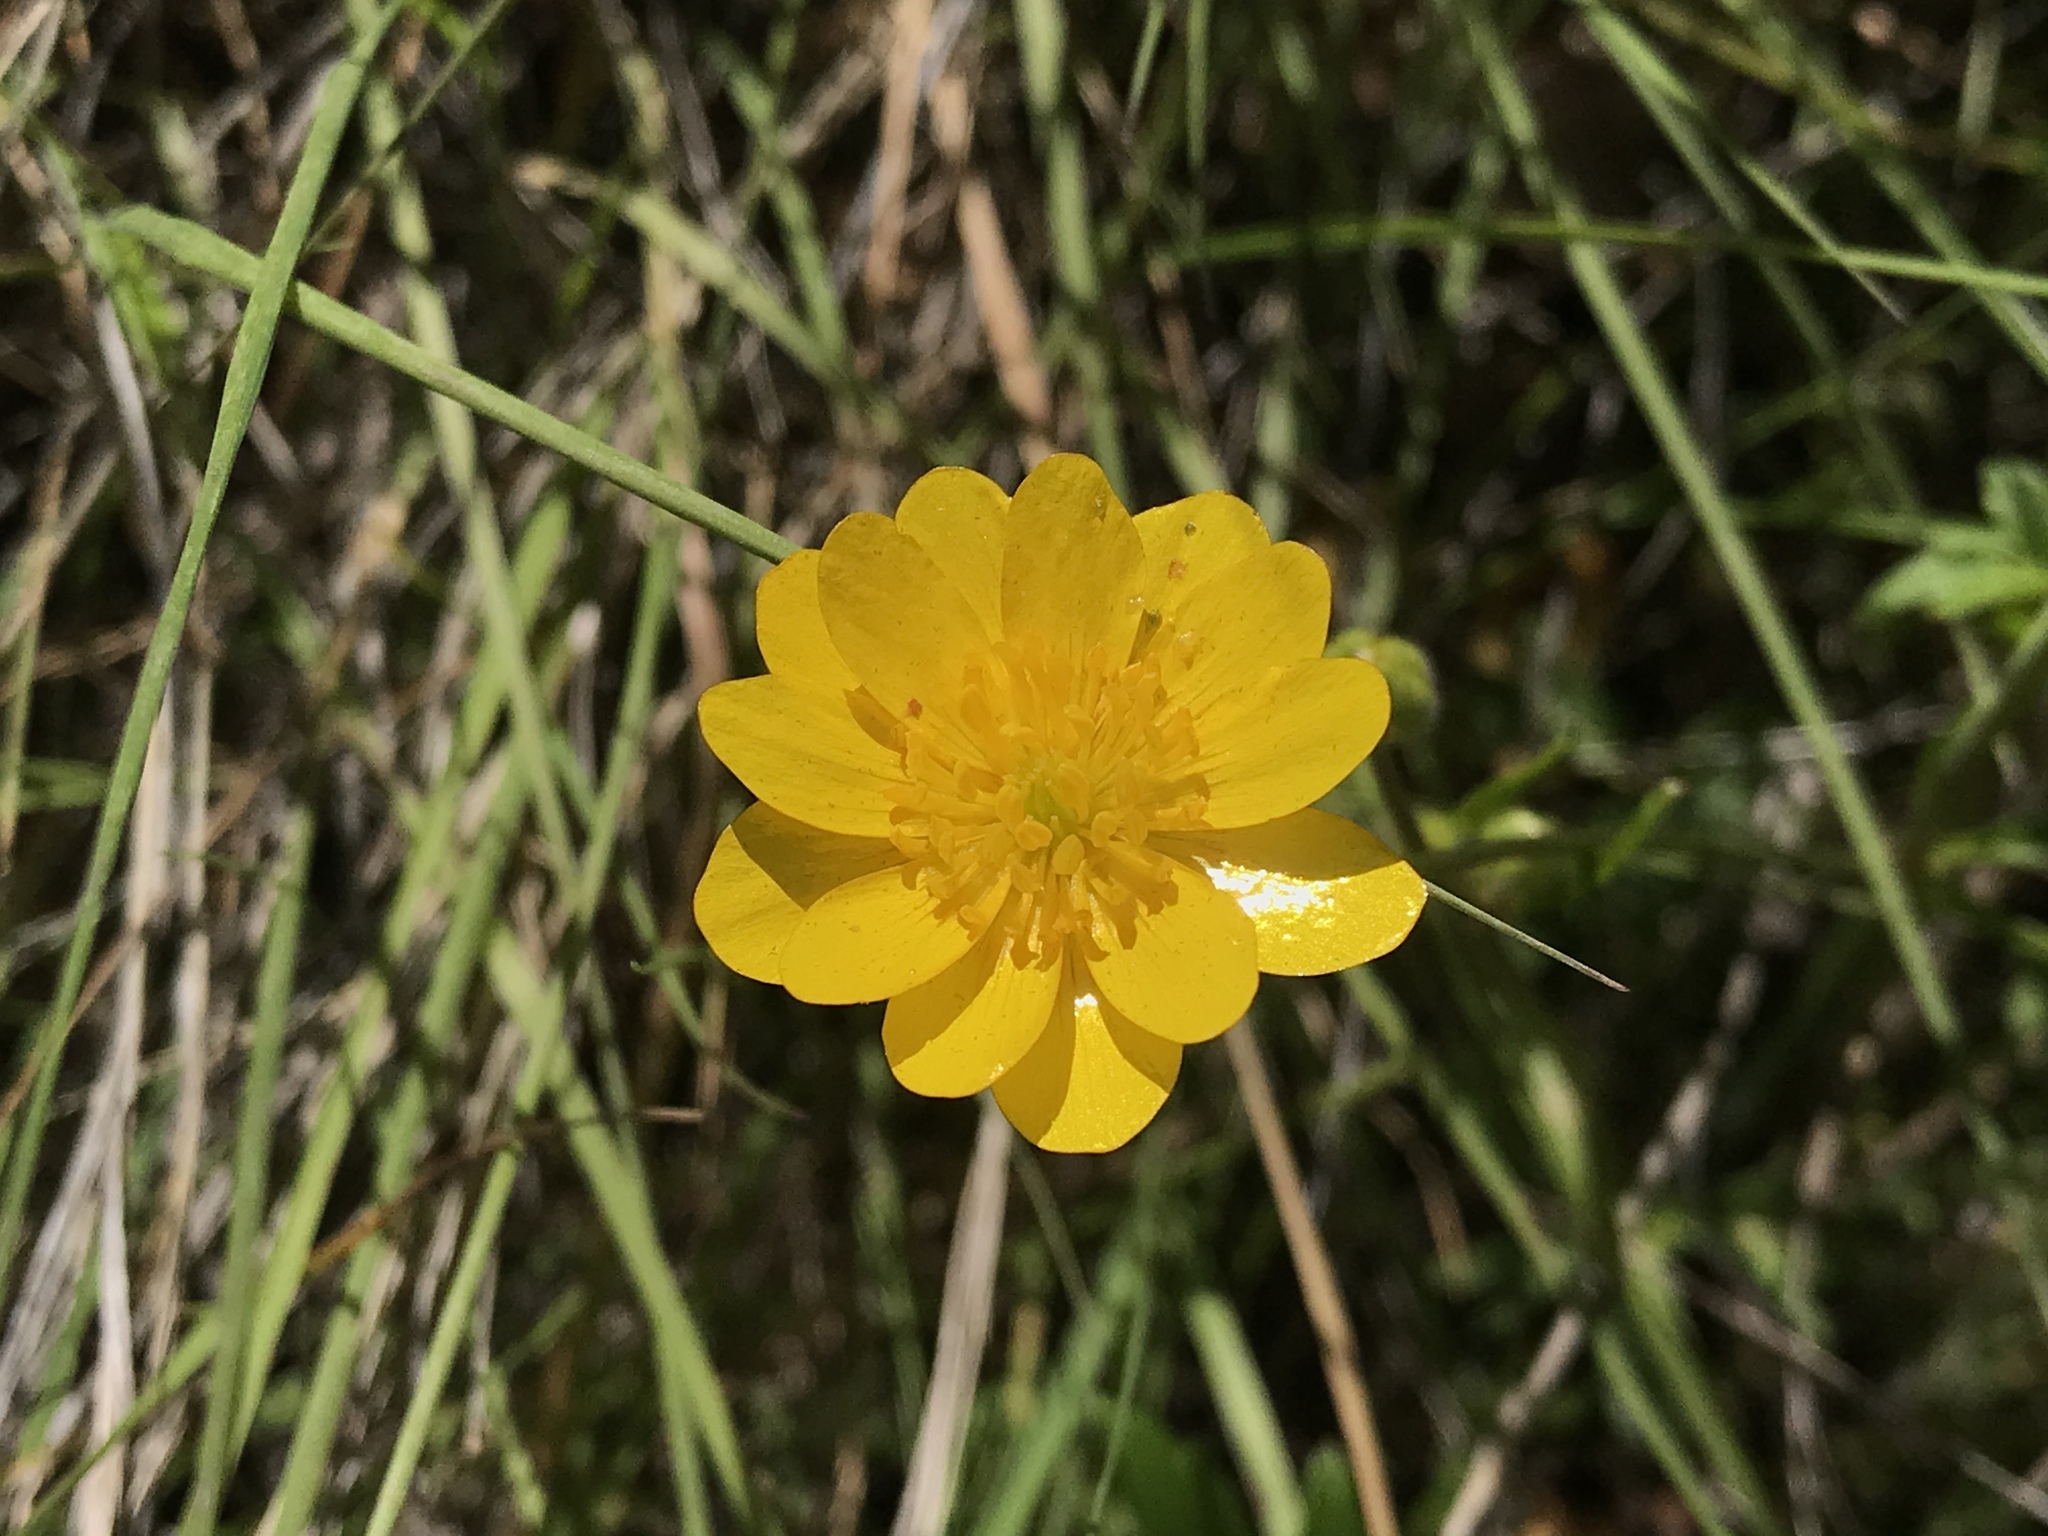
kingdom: Plantae
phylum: Tracheophyta
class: Magnoliopsida
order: Ranunculales
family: Ranunculaceae
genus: Ranunculus
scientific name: Ranunculus californicus
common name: California buttercup
